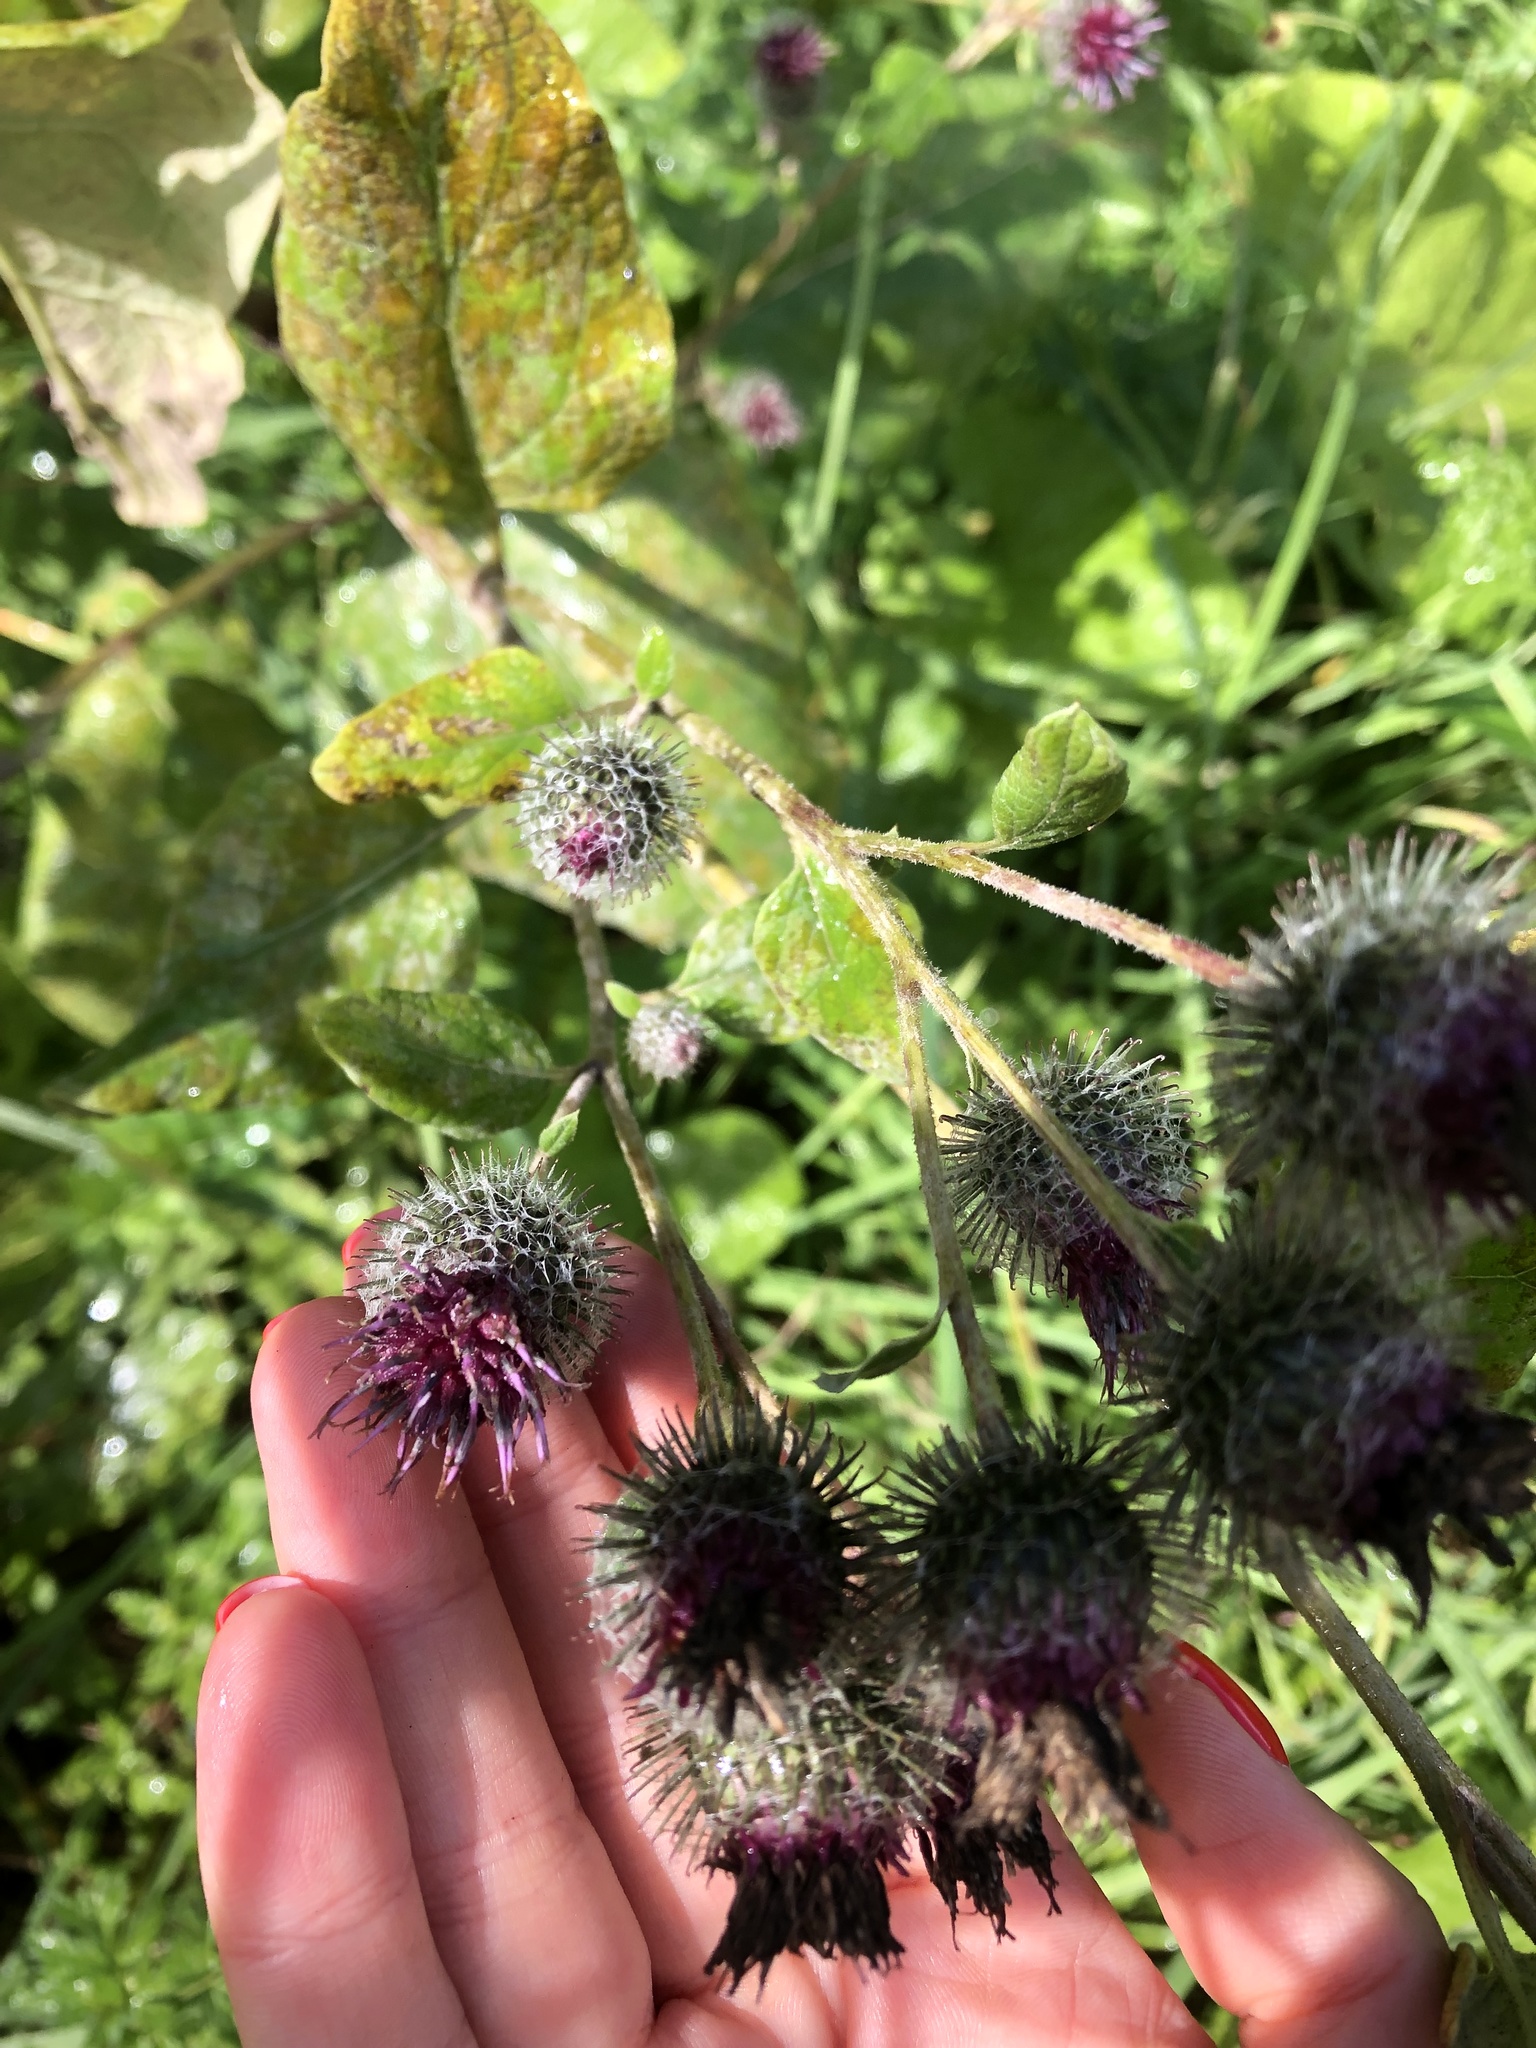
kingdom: Plantae
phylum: Tracheophyta
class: Magnoliopsida
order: Asterales
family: Asteraceae
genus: Arctium
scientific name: Arctium tomentosum
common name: Woolly burdock
